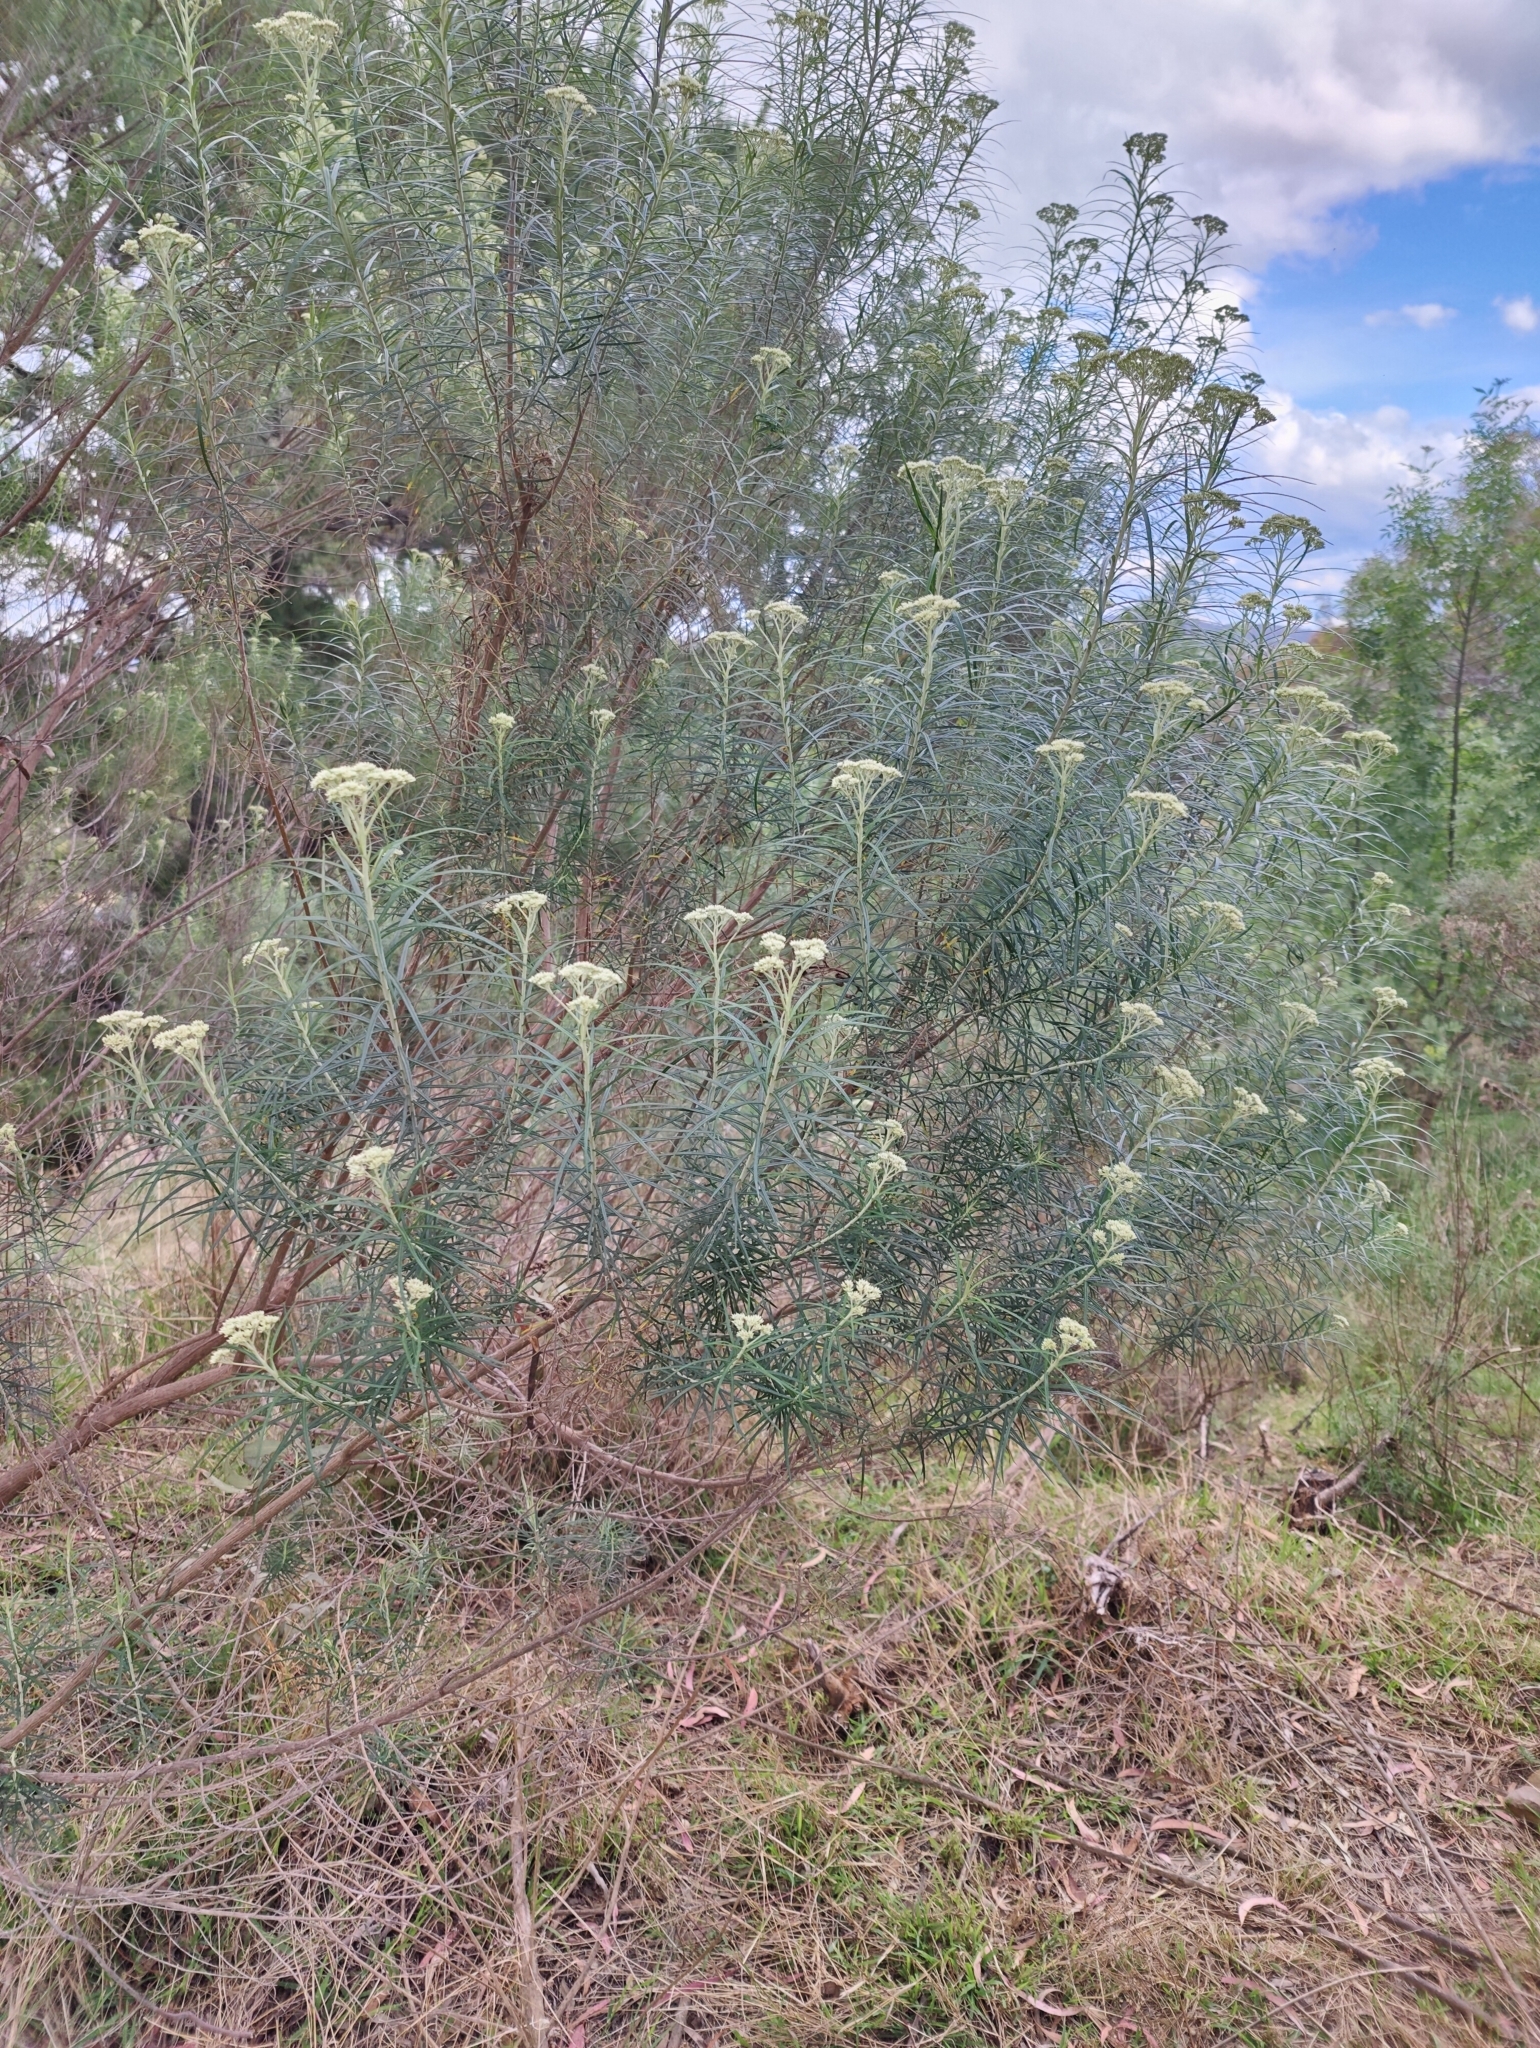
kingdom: Plantae
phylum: Tracheophyta
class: Magnoliopsida
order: Asterales
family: Asteraceae
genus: Cassinia
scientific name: Cassinia longifolia
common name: Longleaf-dogwood
